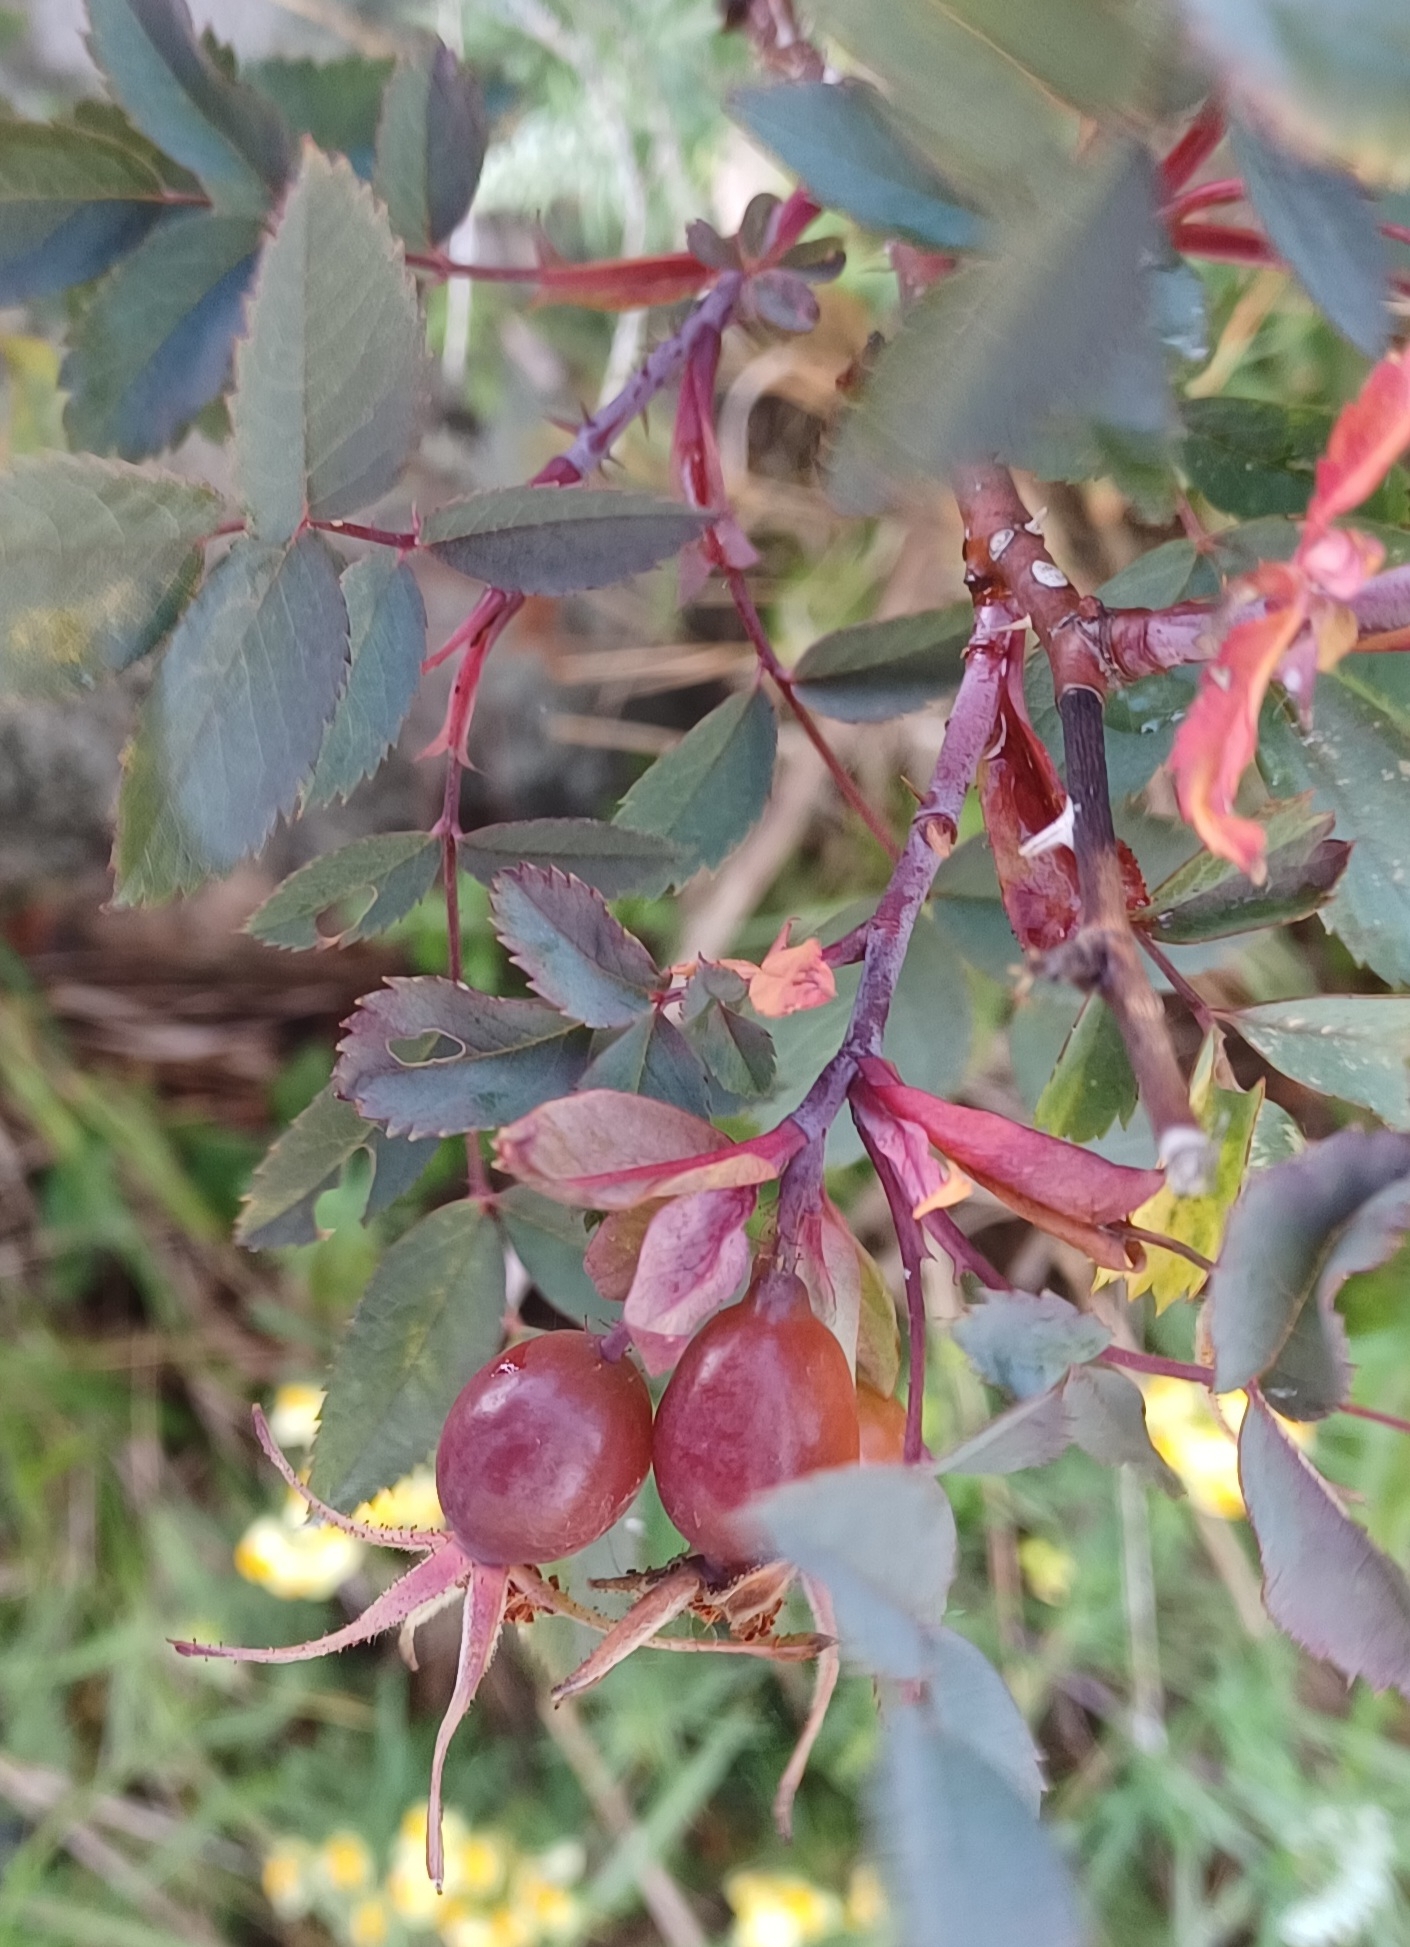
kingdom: Plantae
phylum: Tracheophyta
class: Magnoliopsida
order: Rosales
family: Rosaceae
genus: Rosa
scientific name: Rosa glauca
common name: Redleaf rose
